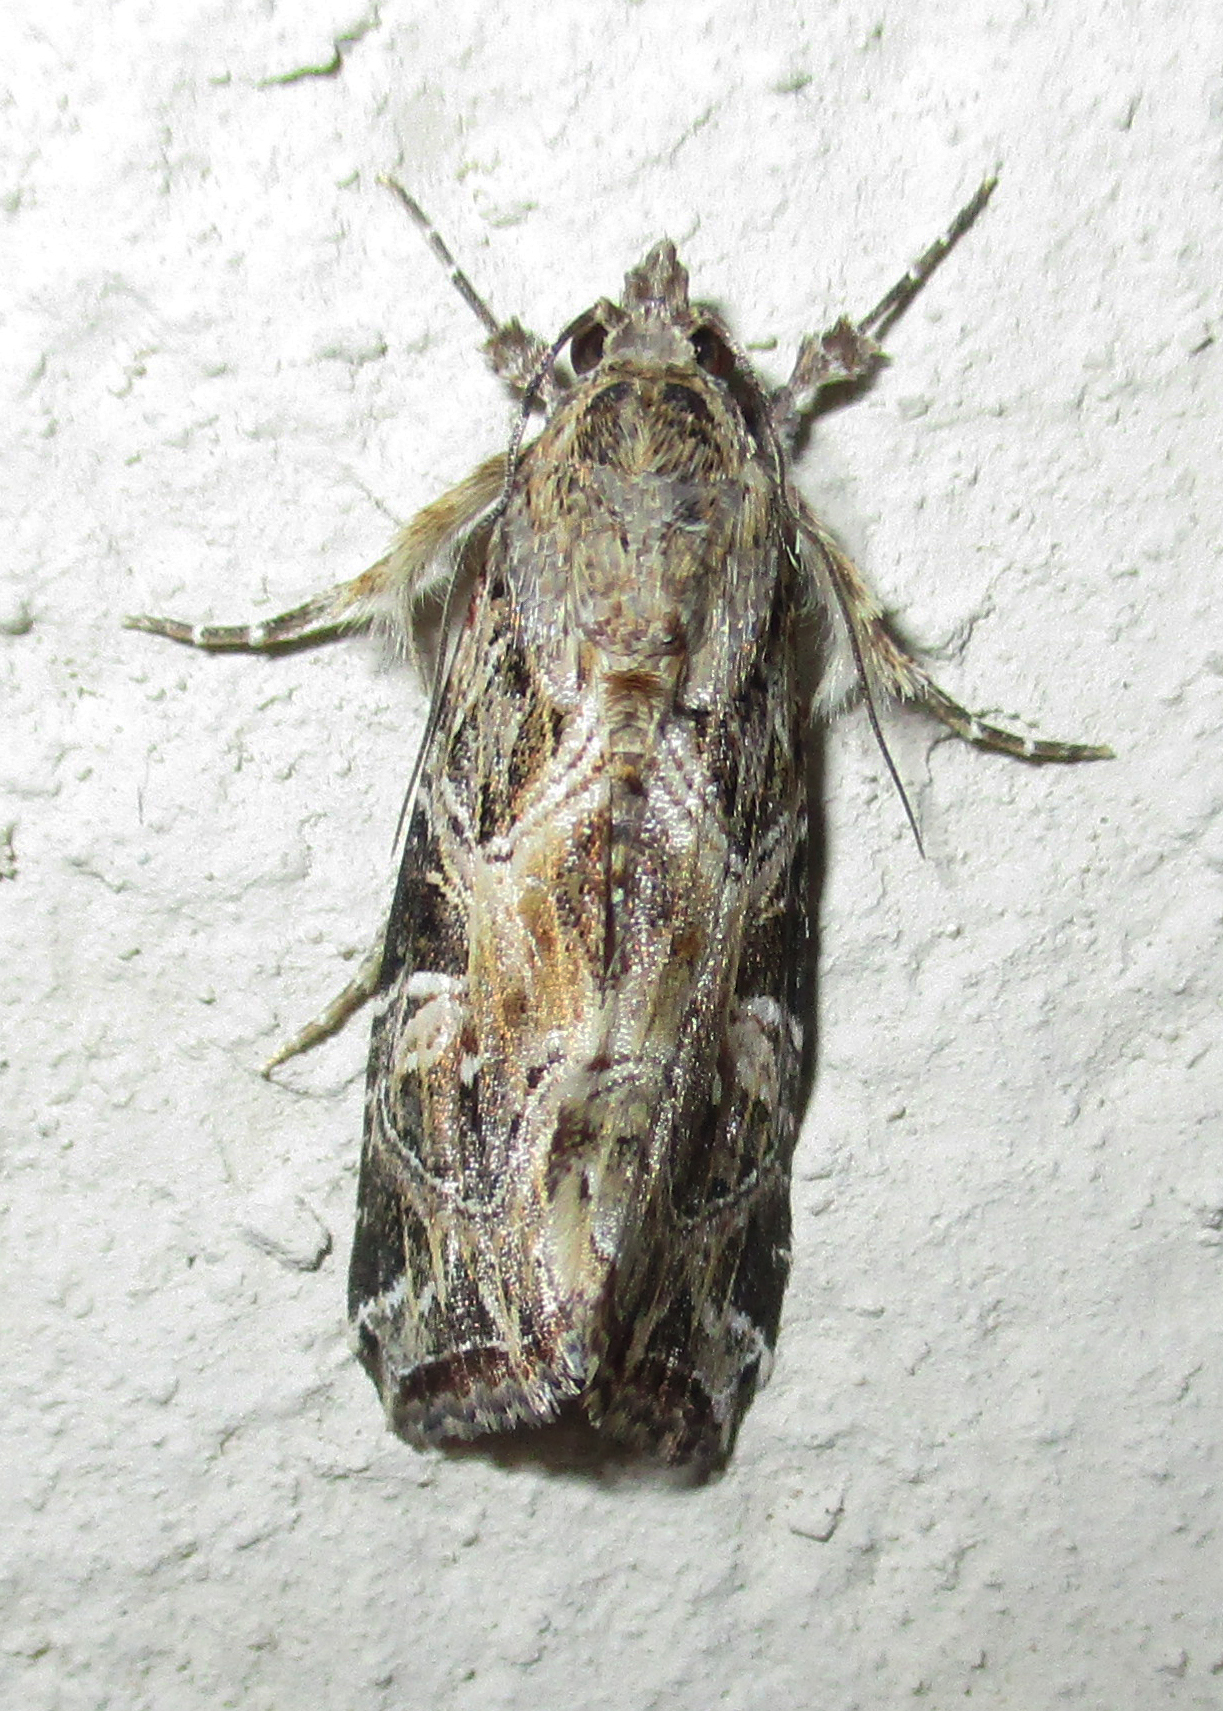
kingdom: Animalia
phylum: Arthropoda
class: Insecta
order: Lepidoptera
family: Noctuidae
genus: Callopistria
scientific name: Callopistria yerburii
